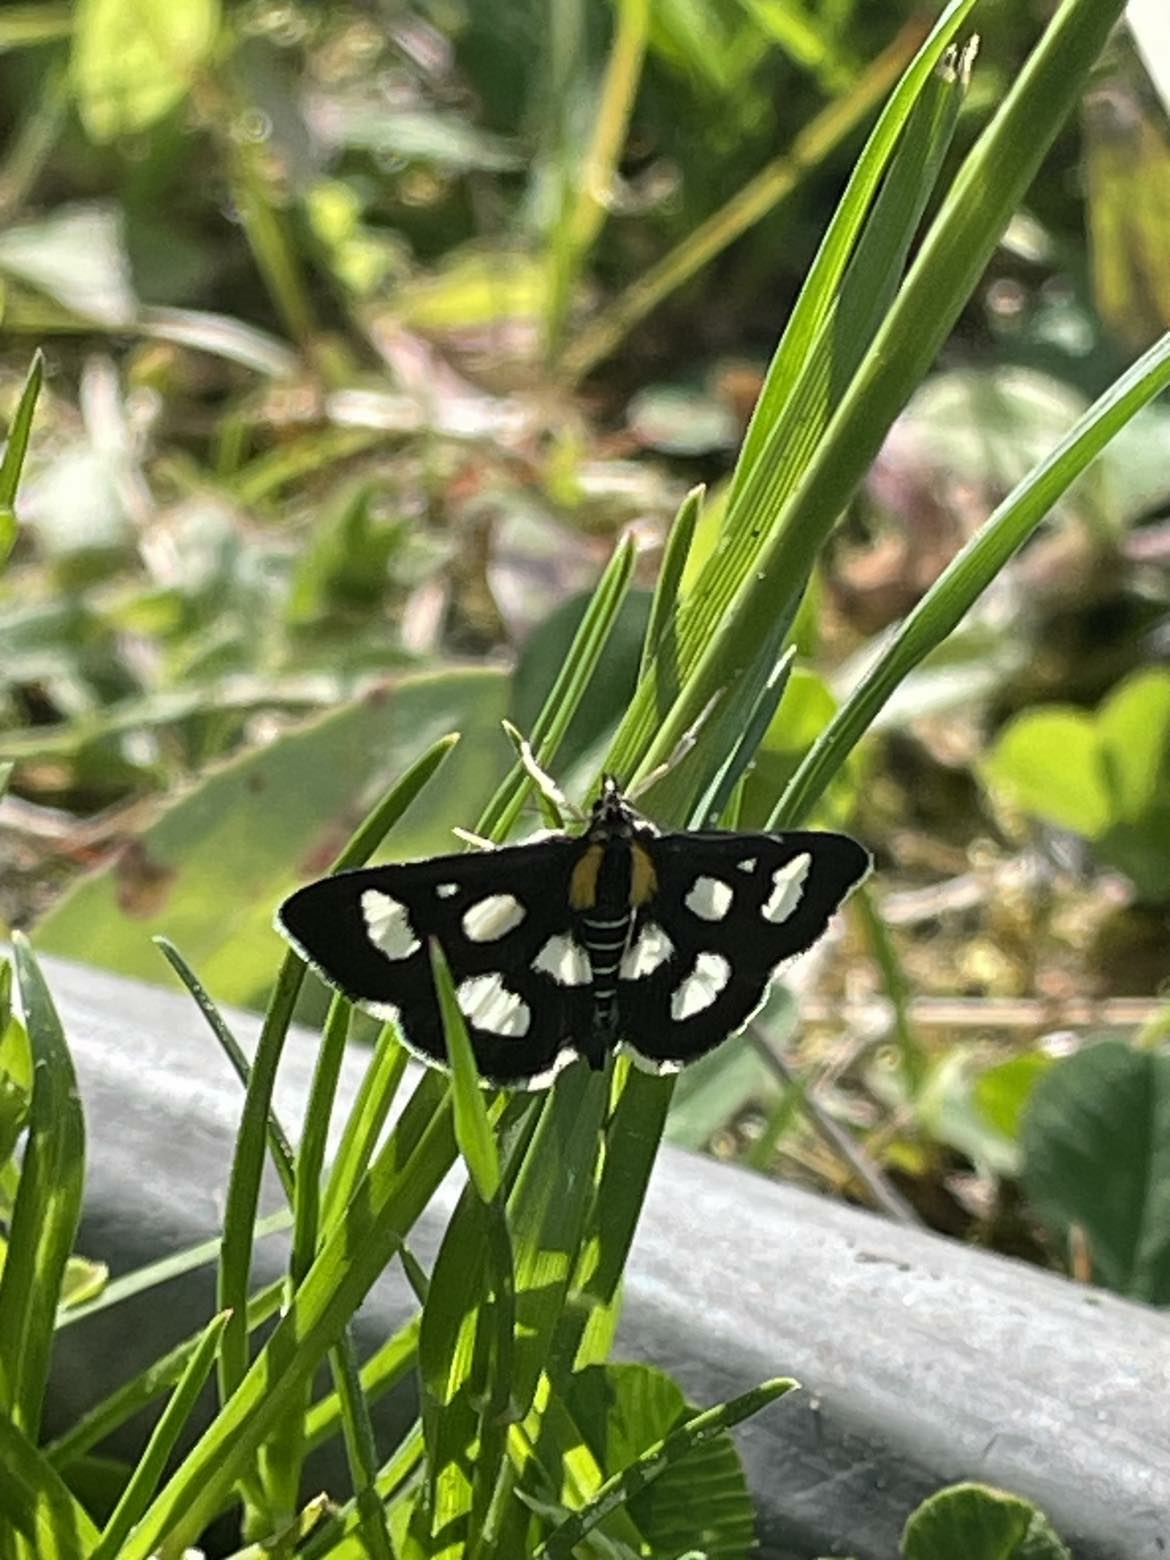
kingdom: Animalia
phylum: Arthropoda
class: Insecta
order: Lepidoptera
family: Crambidae
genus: Anania
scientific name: Anania funebris
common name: White-spotted sable moth
